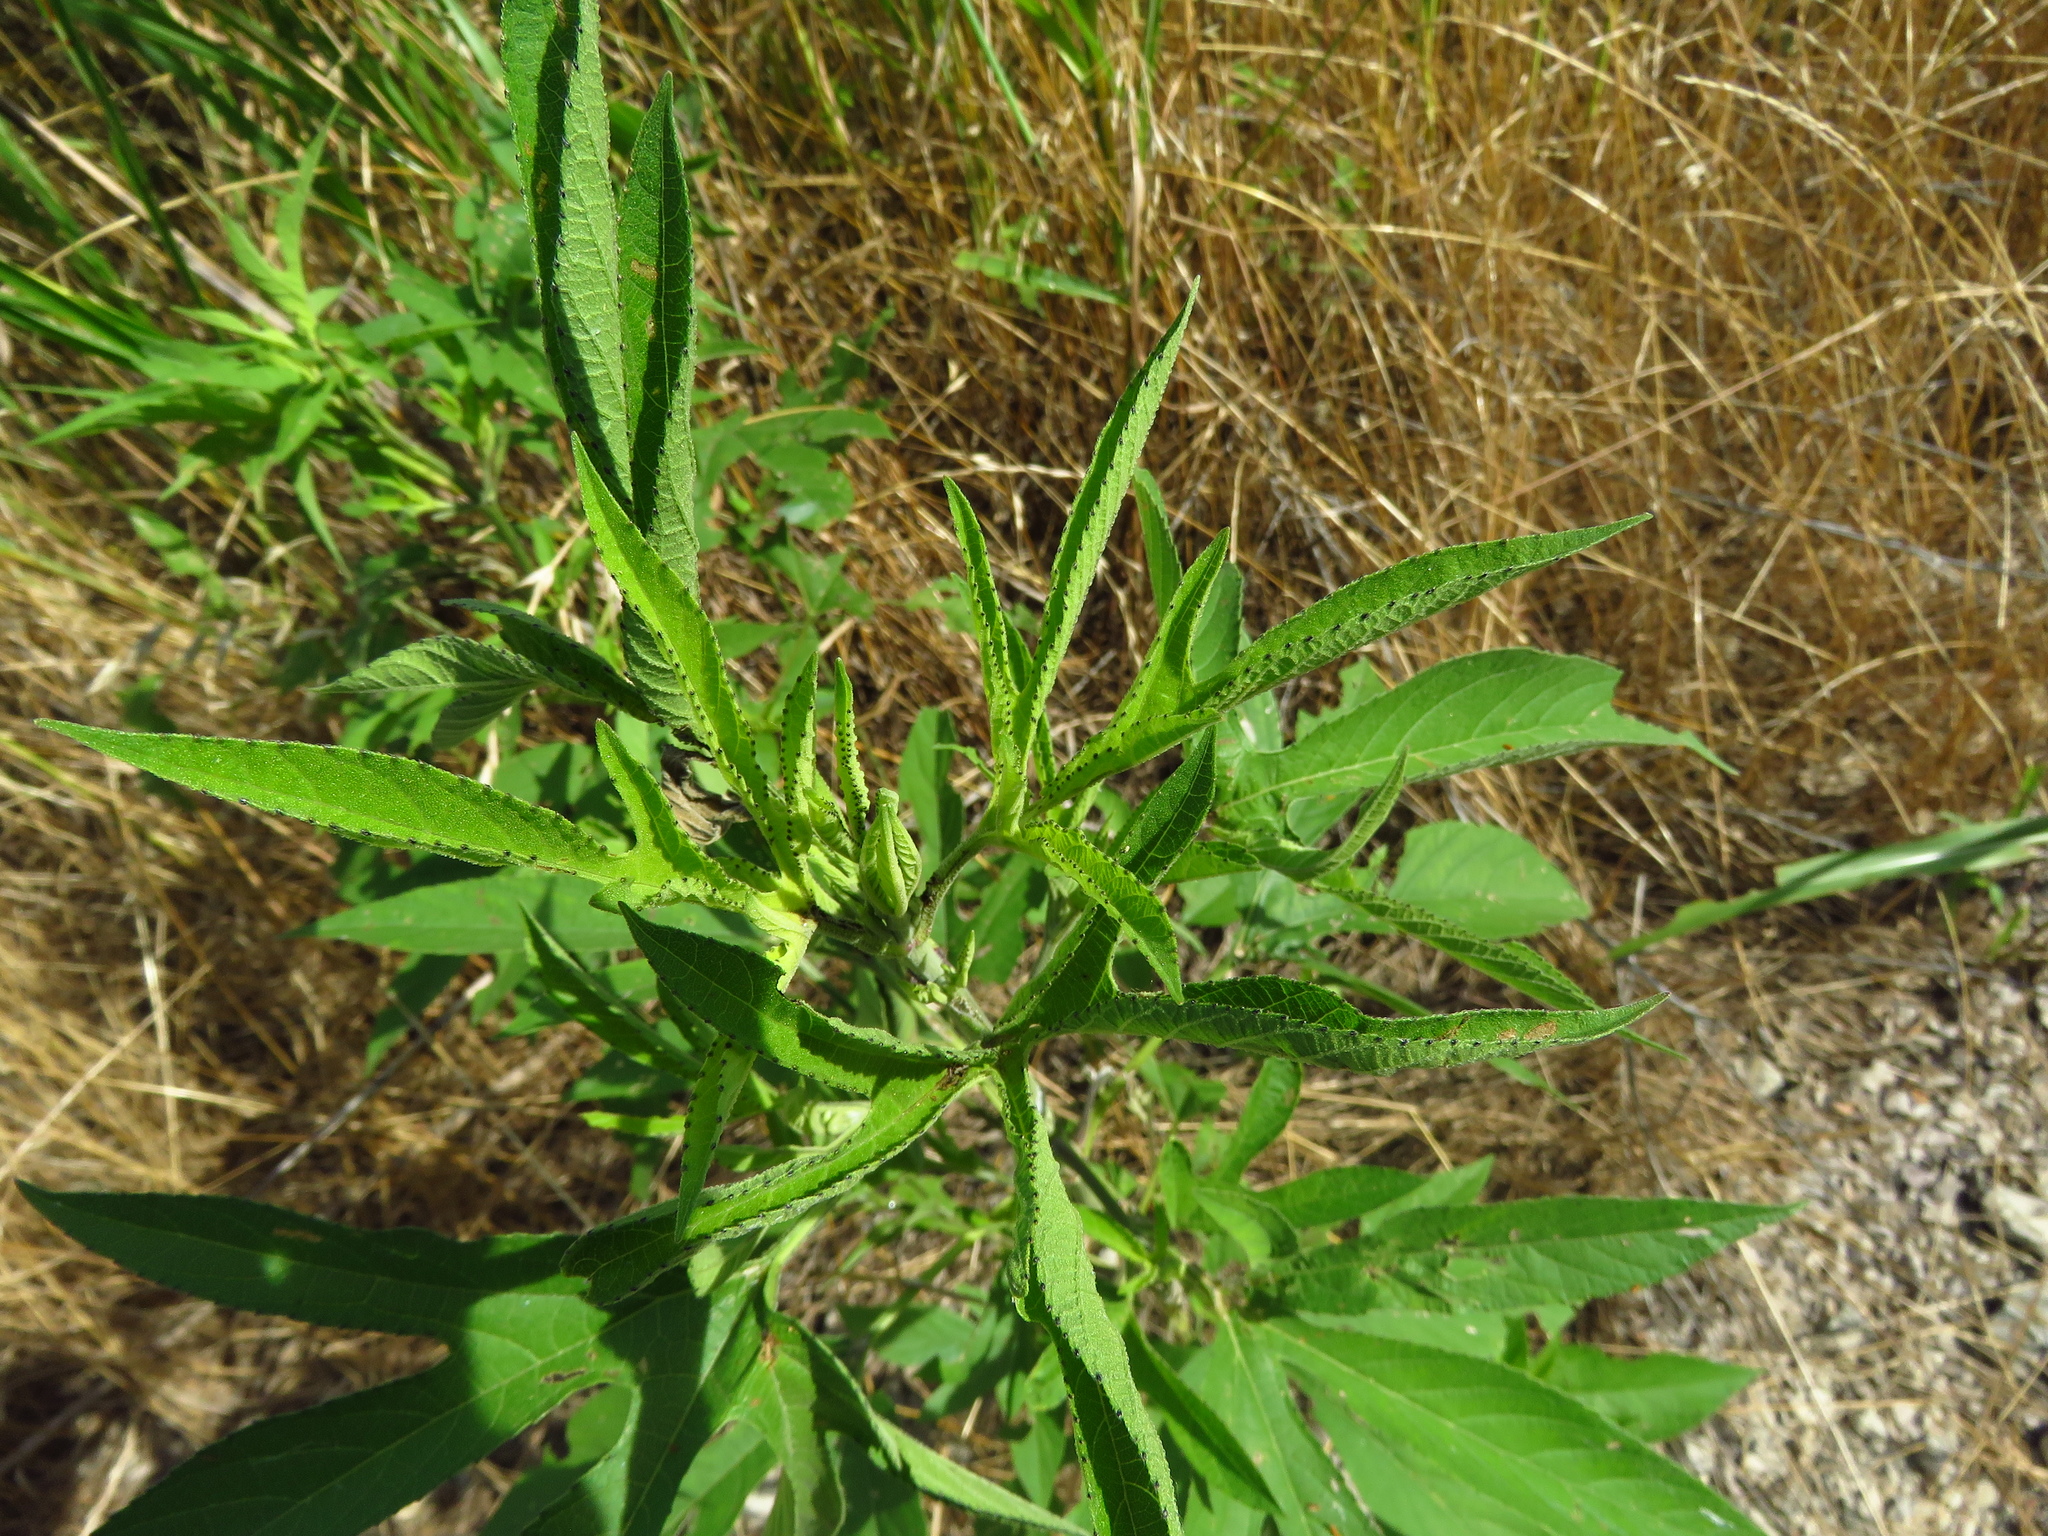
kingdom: Plantae
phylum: Tracheophyta
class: Magnoliopsida
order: Asterales
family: Asteraceae
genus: Ambrosia
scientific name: Ambrosia trifida
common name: Giant ragweed
